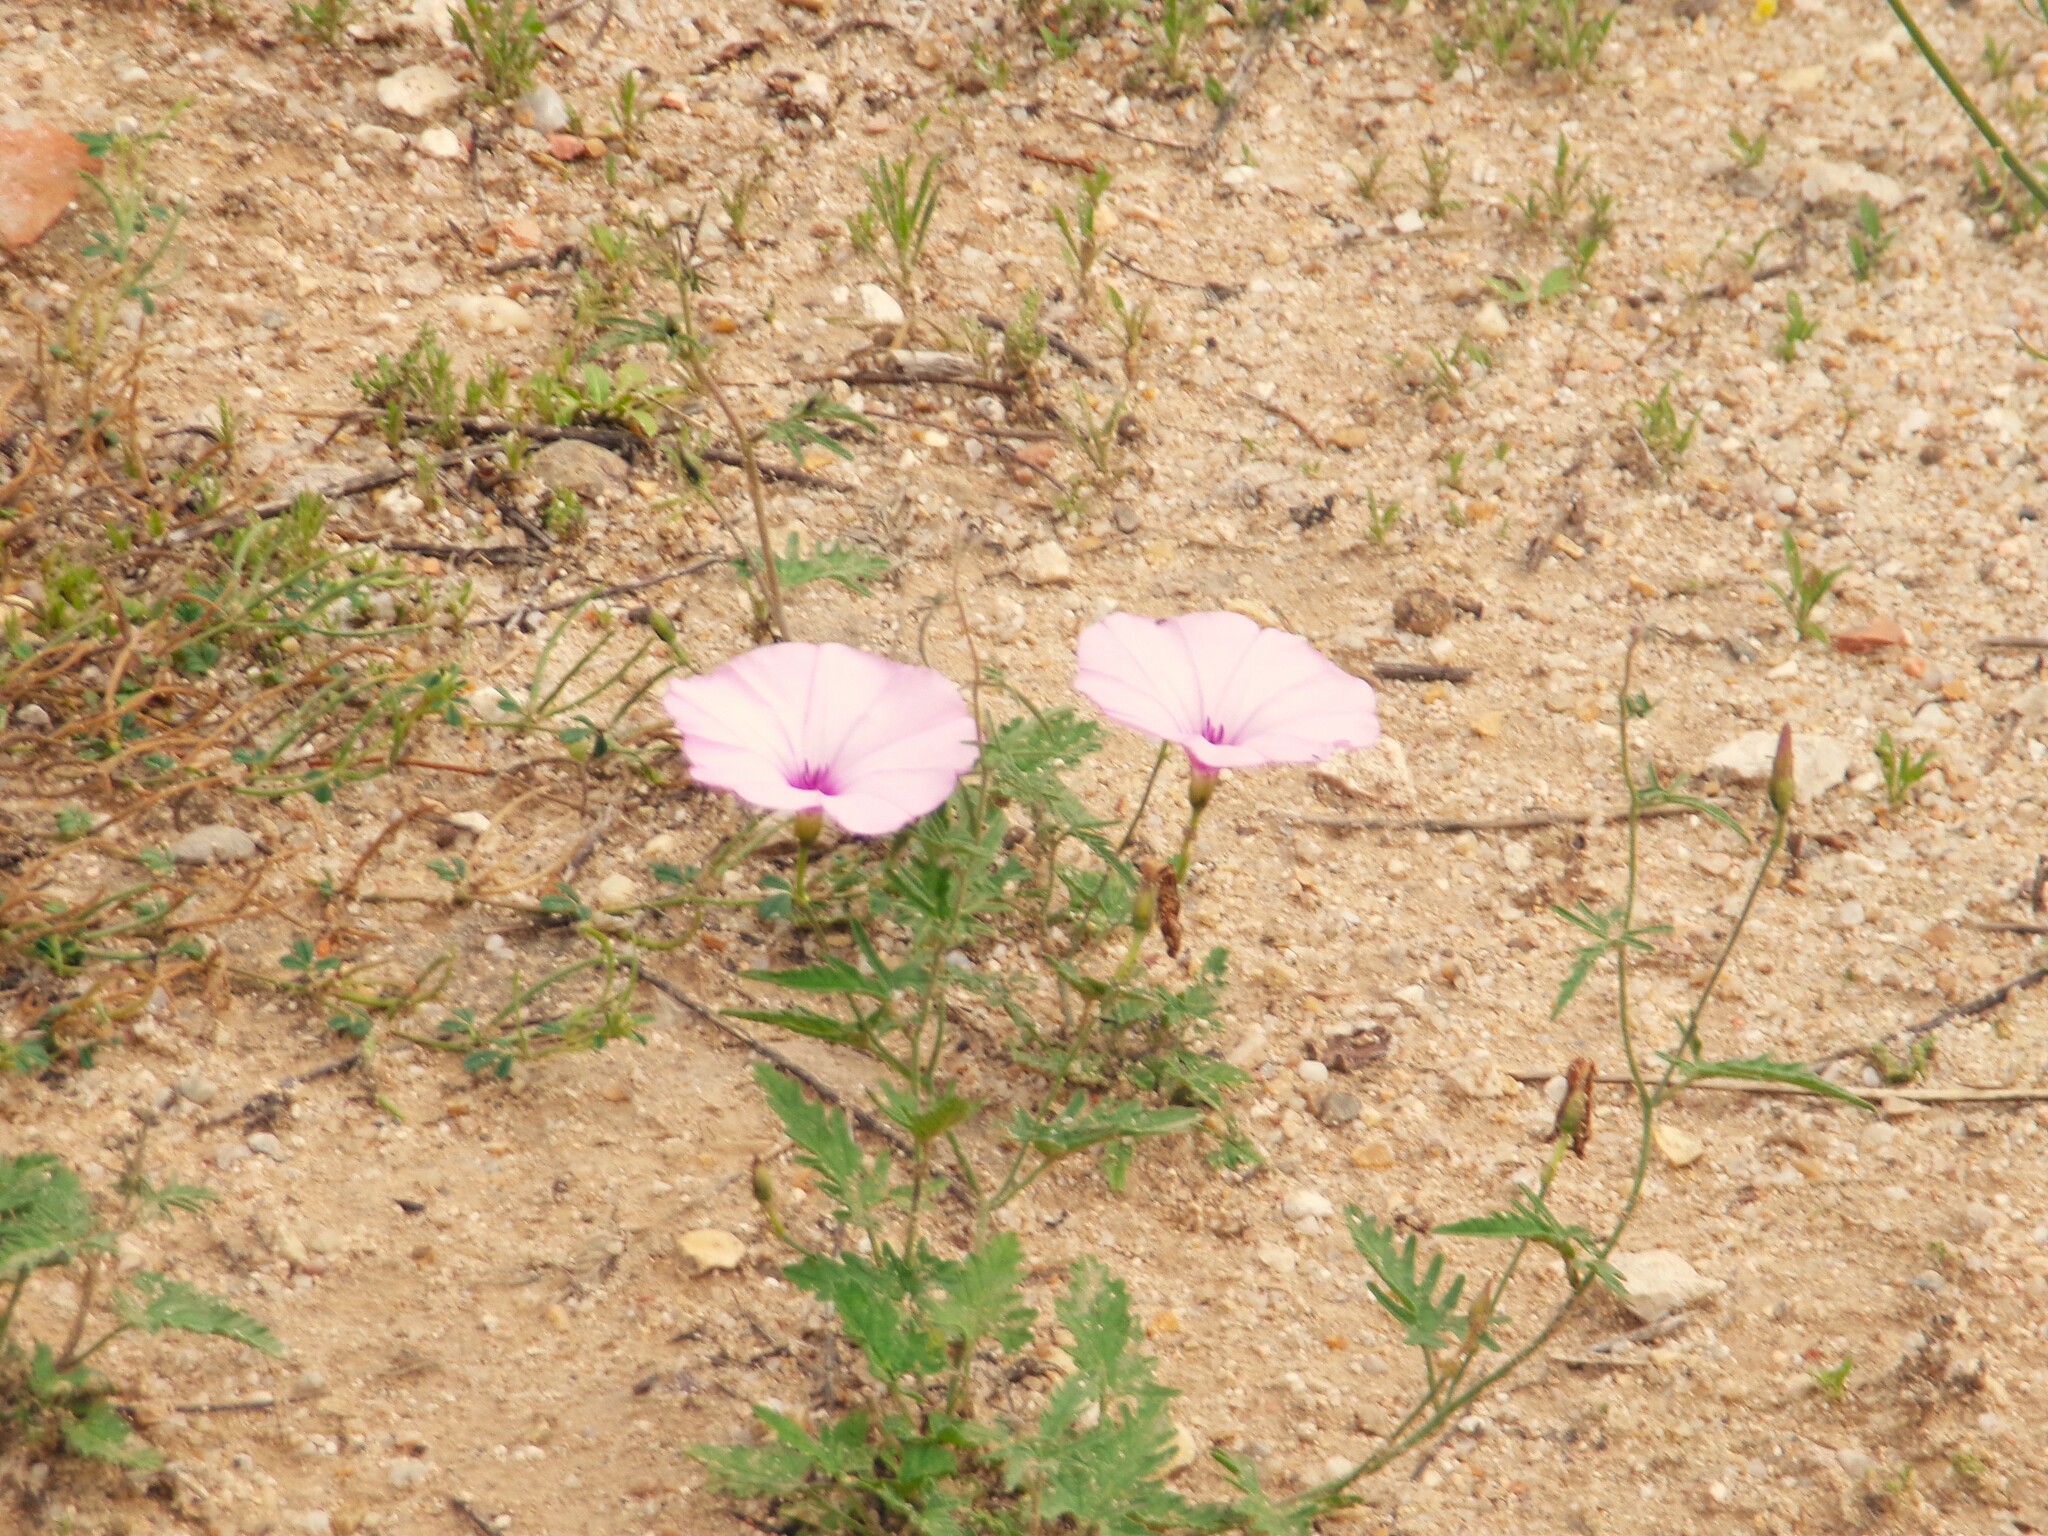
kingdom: Plantae
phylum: Tracheophyta
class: Magnoliopsida
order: Solanales
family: Convolvulaceae
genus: Convolvulus
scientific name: Convolvulus althaeoides
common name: Mallow bindweed
